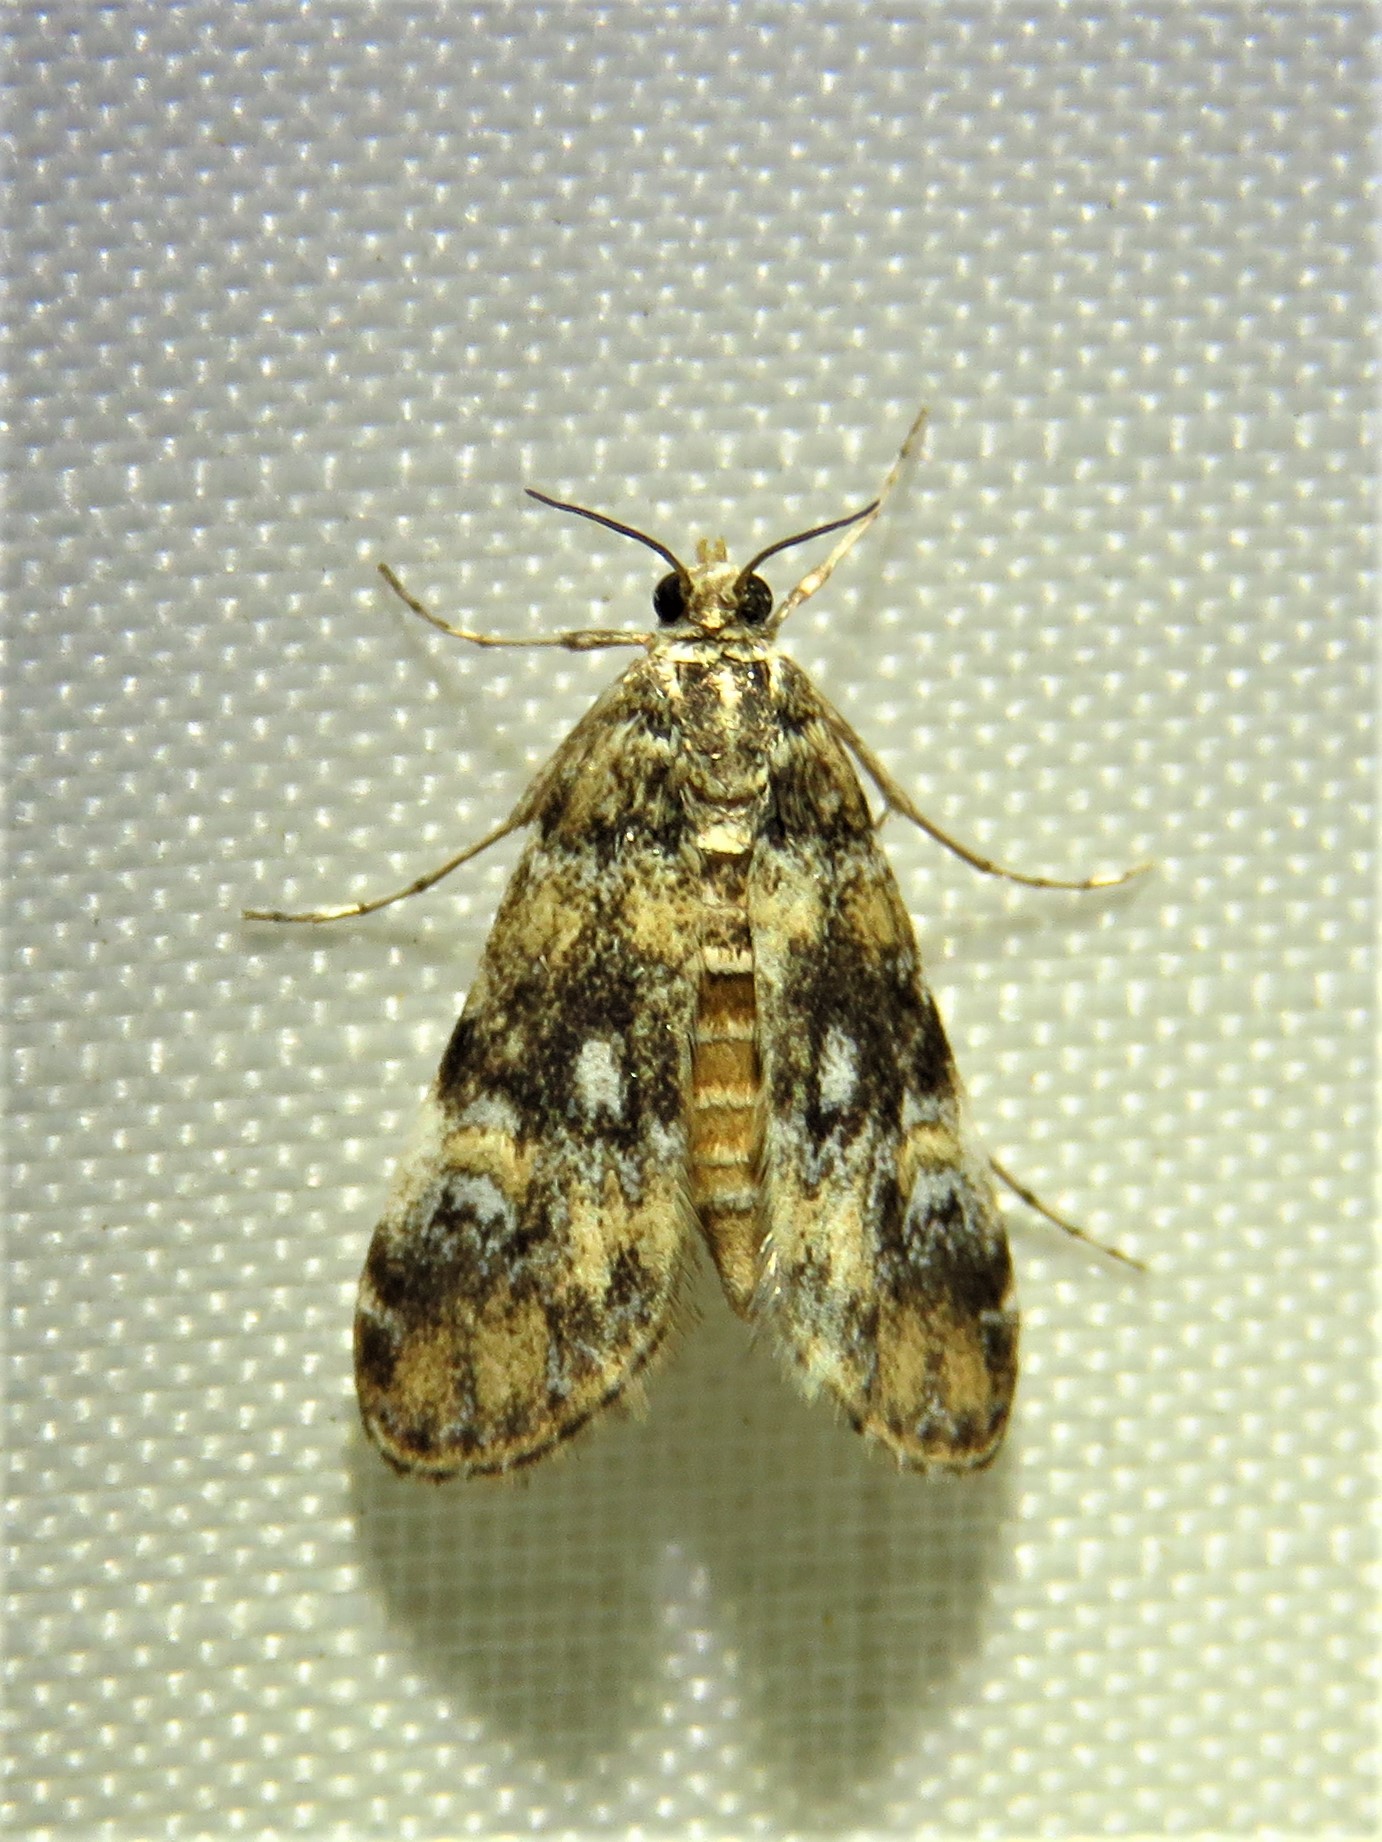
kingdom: Animalia
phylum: Arthropoda
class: Insecta
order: Lepidoptera
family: Crambidae
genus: Elophila
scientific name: Elophila obliteralis
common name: Waterlily leafcutter moth
